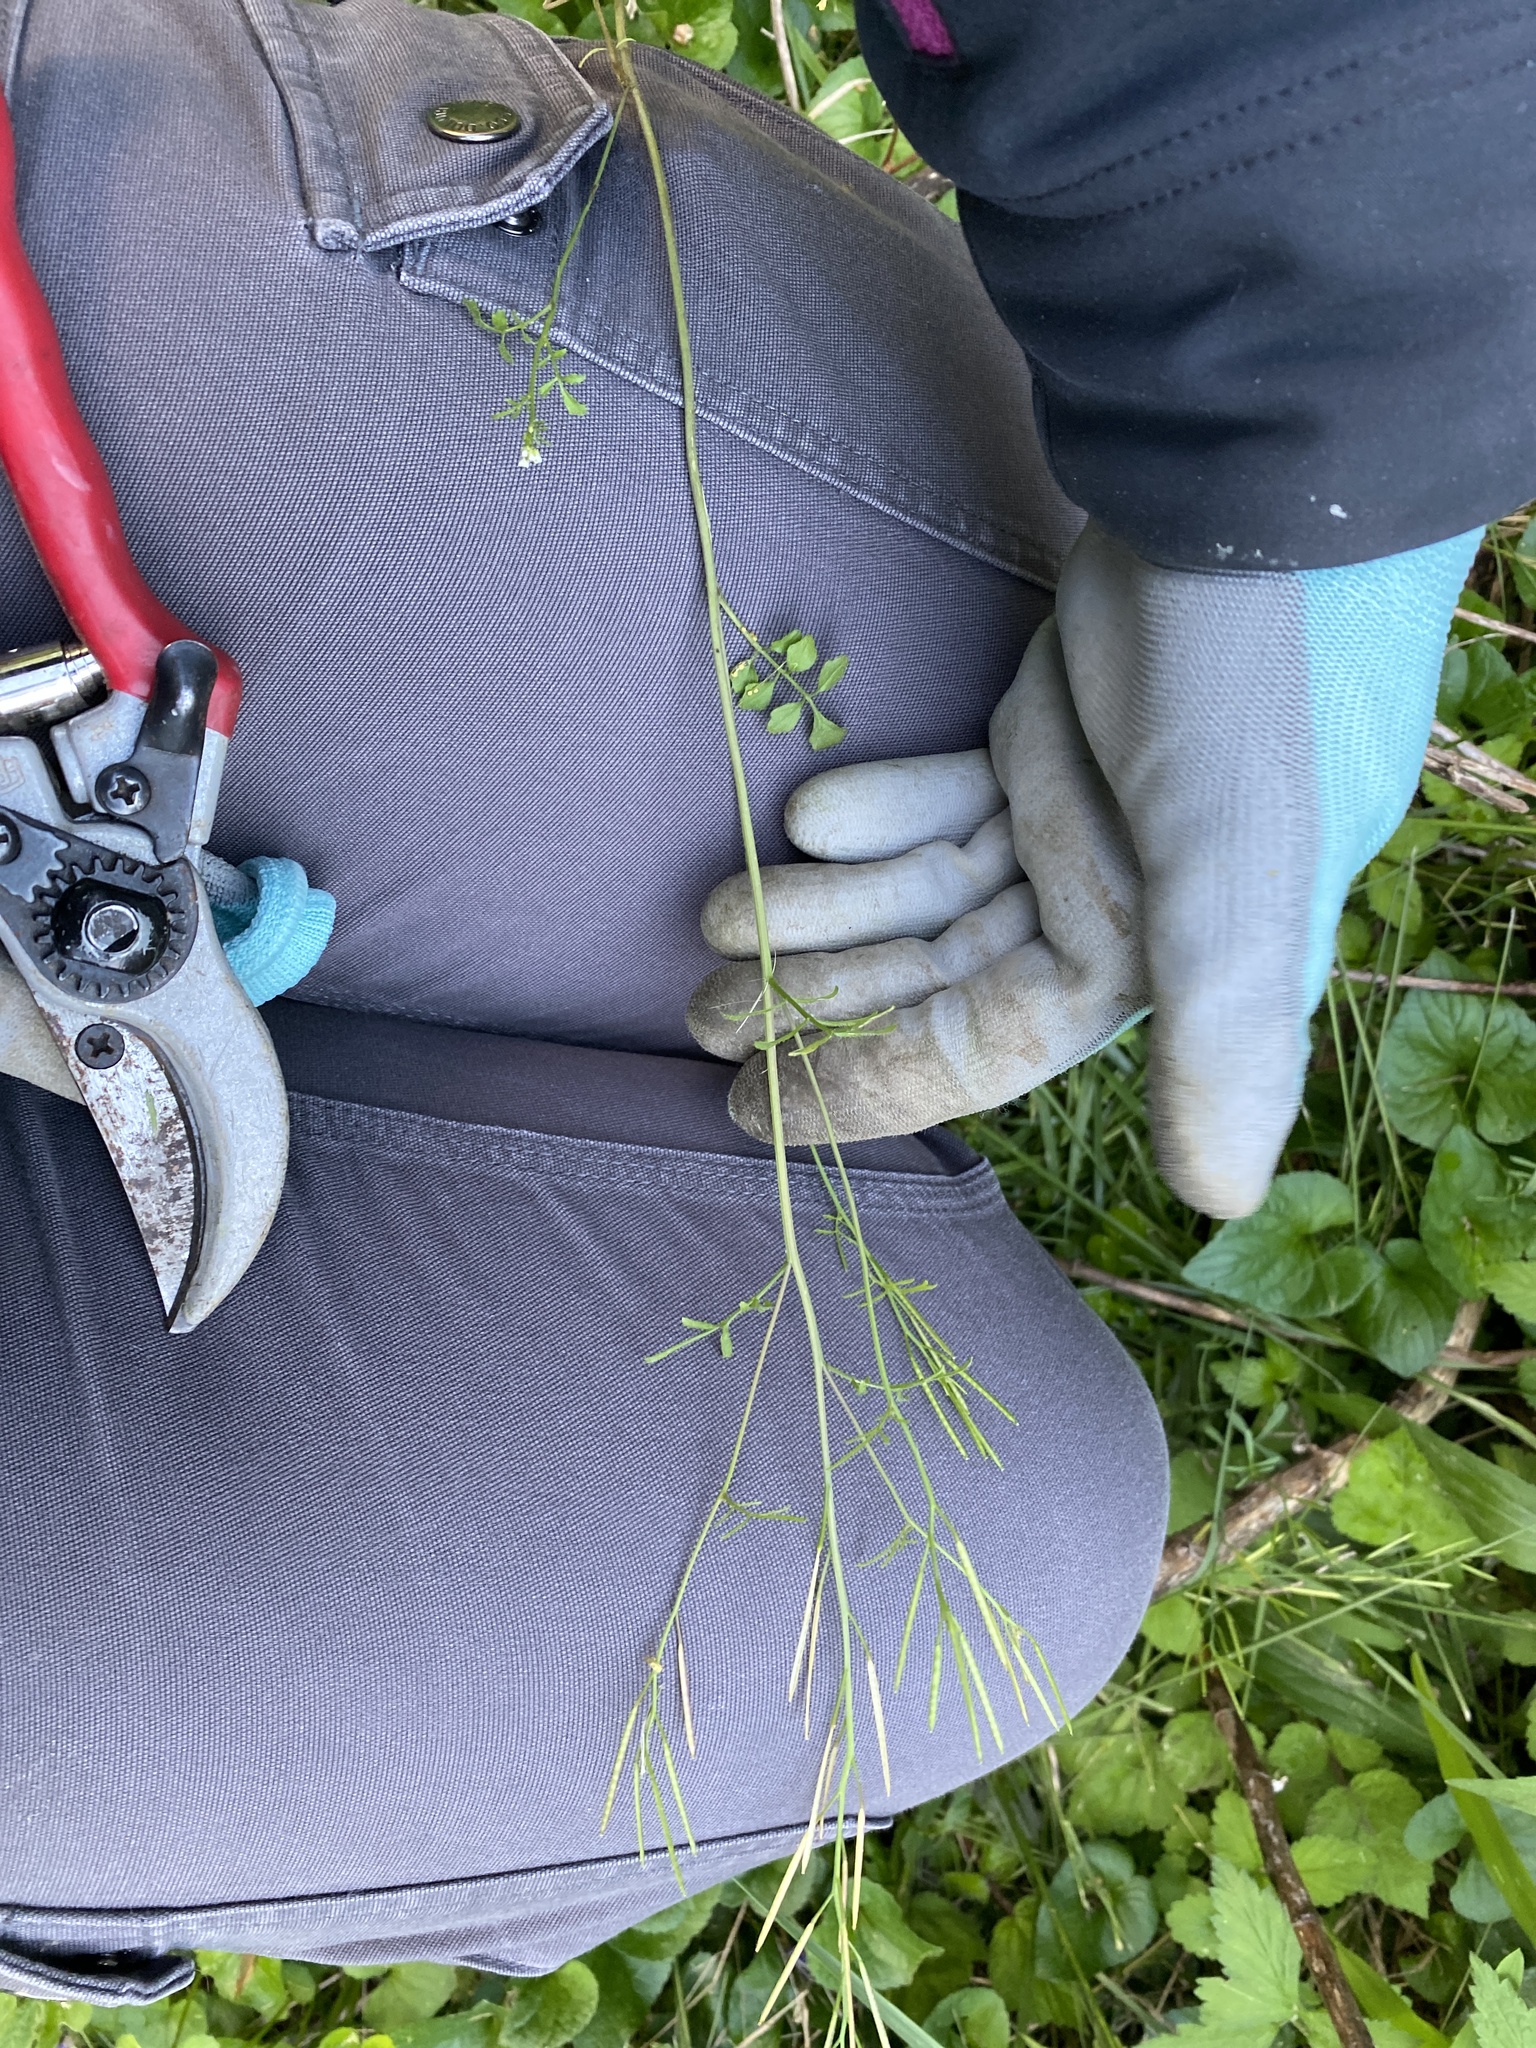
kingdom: Plantae
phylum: Tracheophyta
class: Magnoliopsida
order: Brassicales
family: Brassicaceae
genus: Cardamine
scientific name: Cardamine hirsuta
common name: Hairy bittercress
